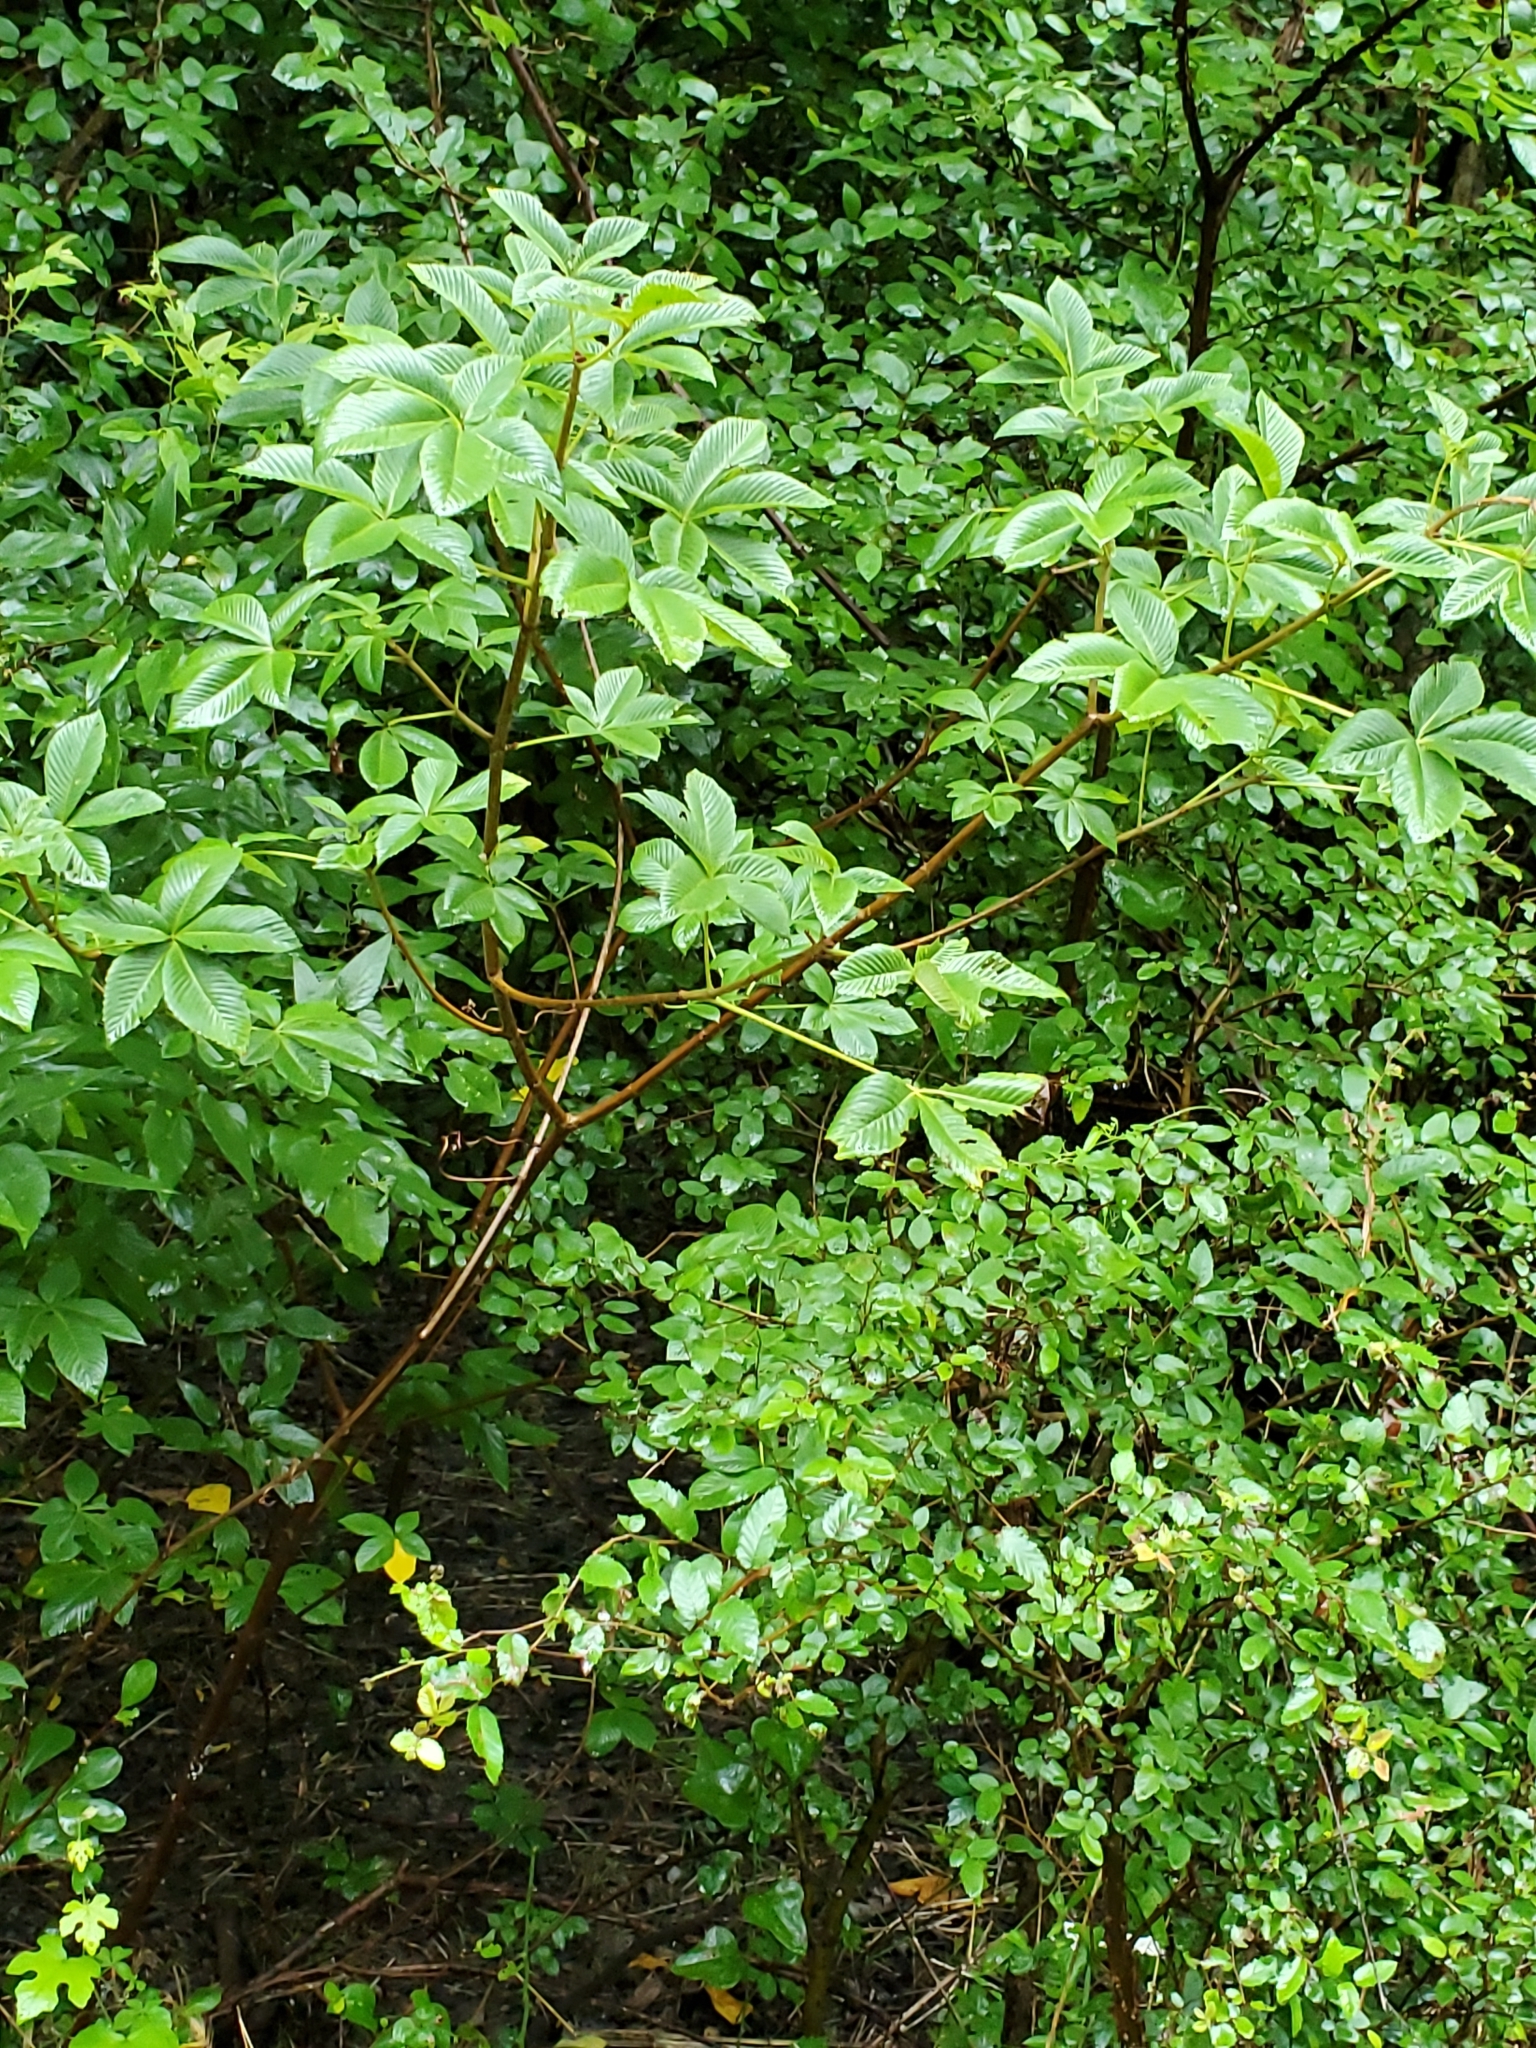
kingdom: Plantae
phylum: Tracheophyta
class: Magnoliopsida
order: Sapindales
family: Sapindaceae
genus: Aesculus
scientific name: Aesculus pavia
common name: Red buckeye
